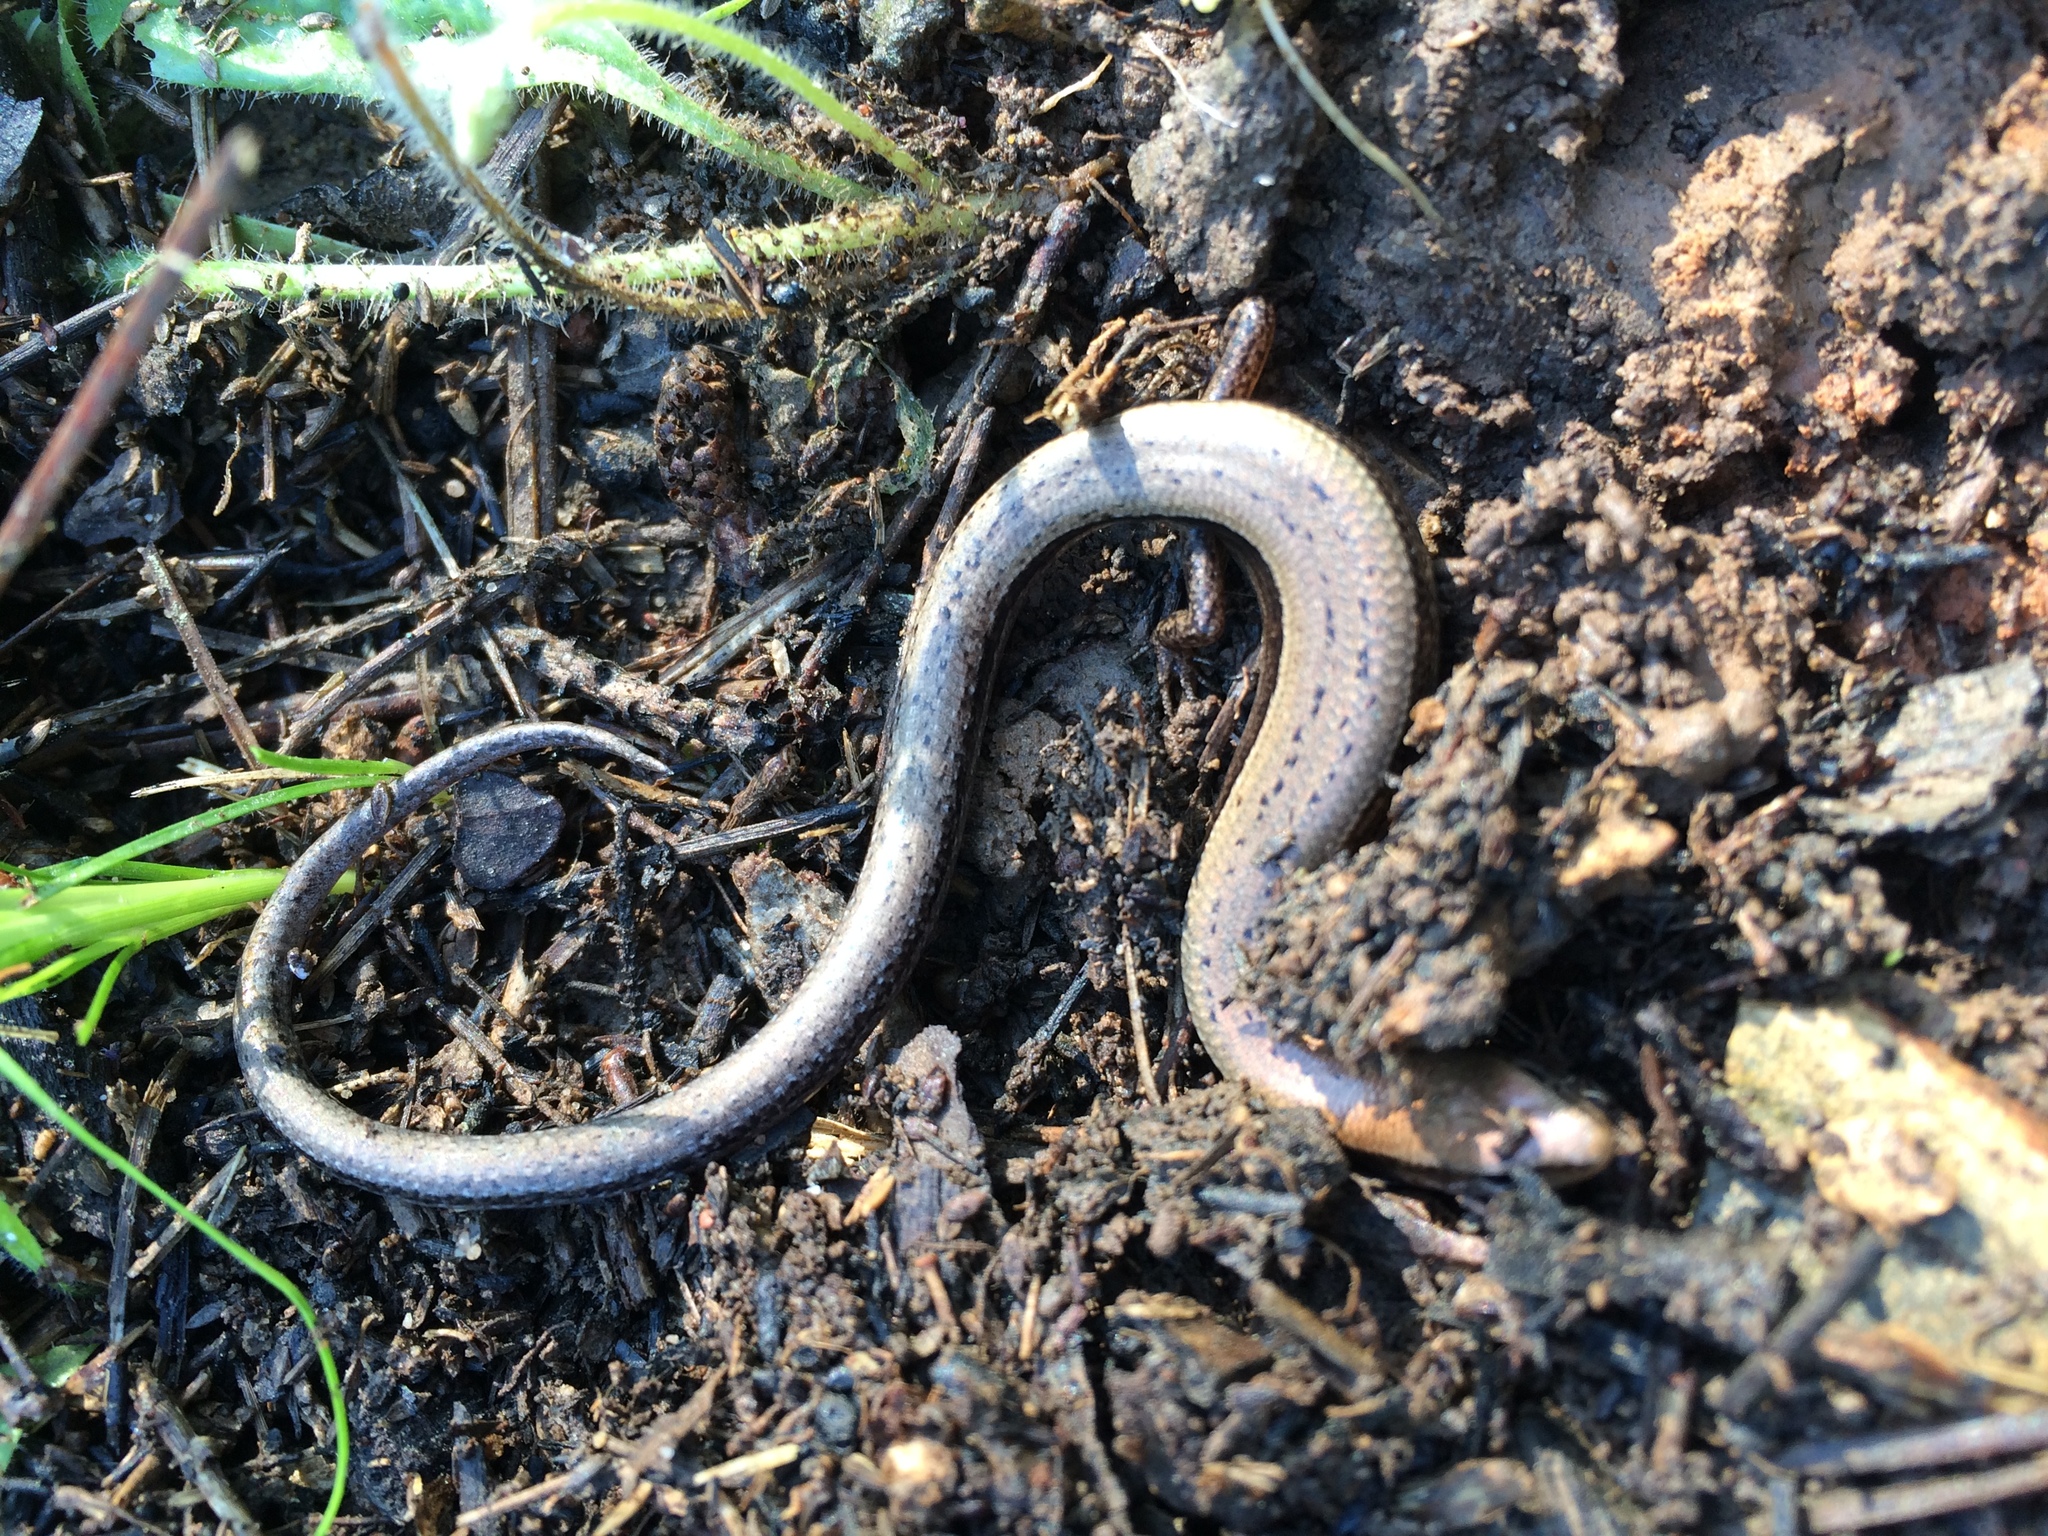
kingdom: Animalia
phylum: Chordata
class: Squamata
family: Scincidae
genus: Scincella
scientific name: Scincella lateralis
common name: Ground skink
